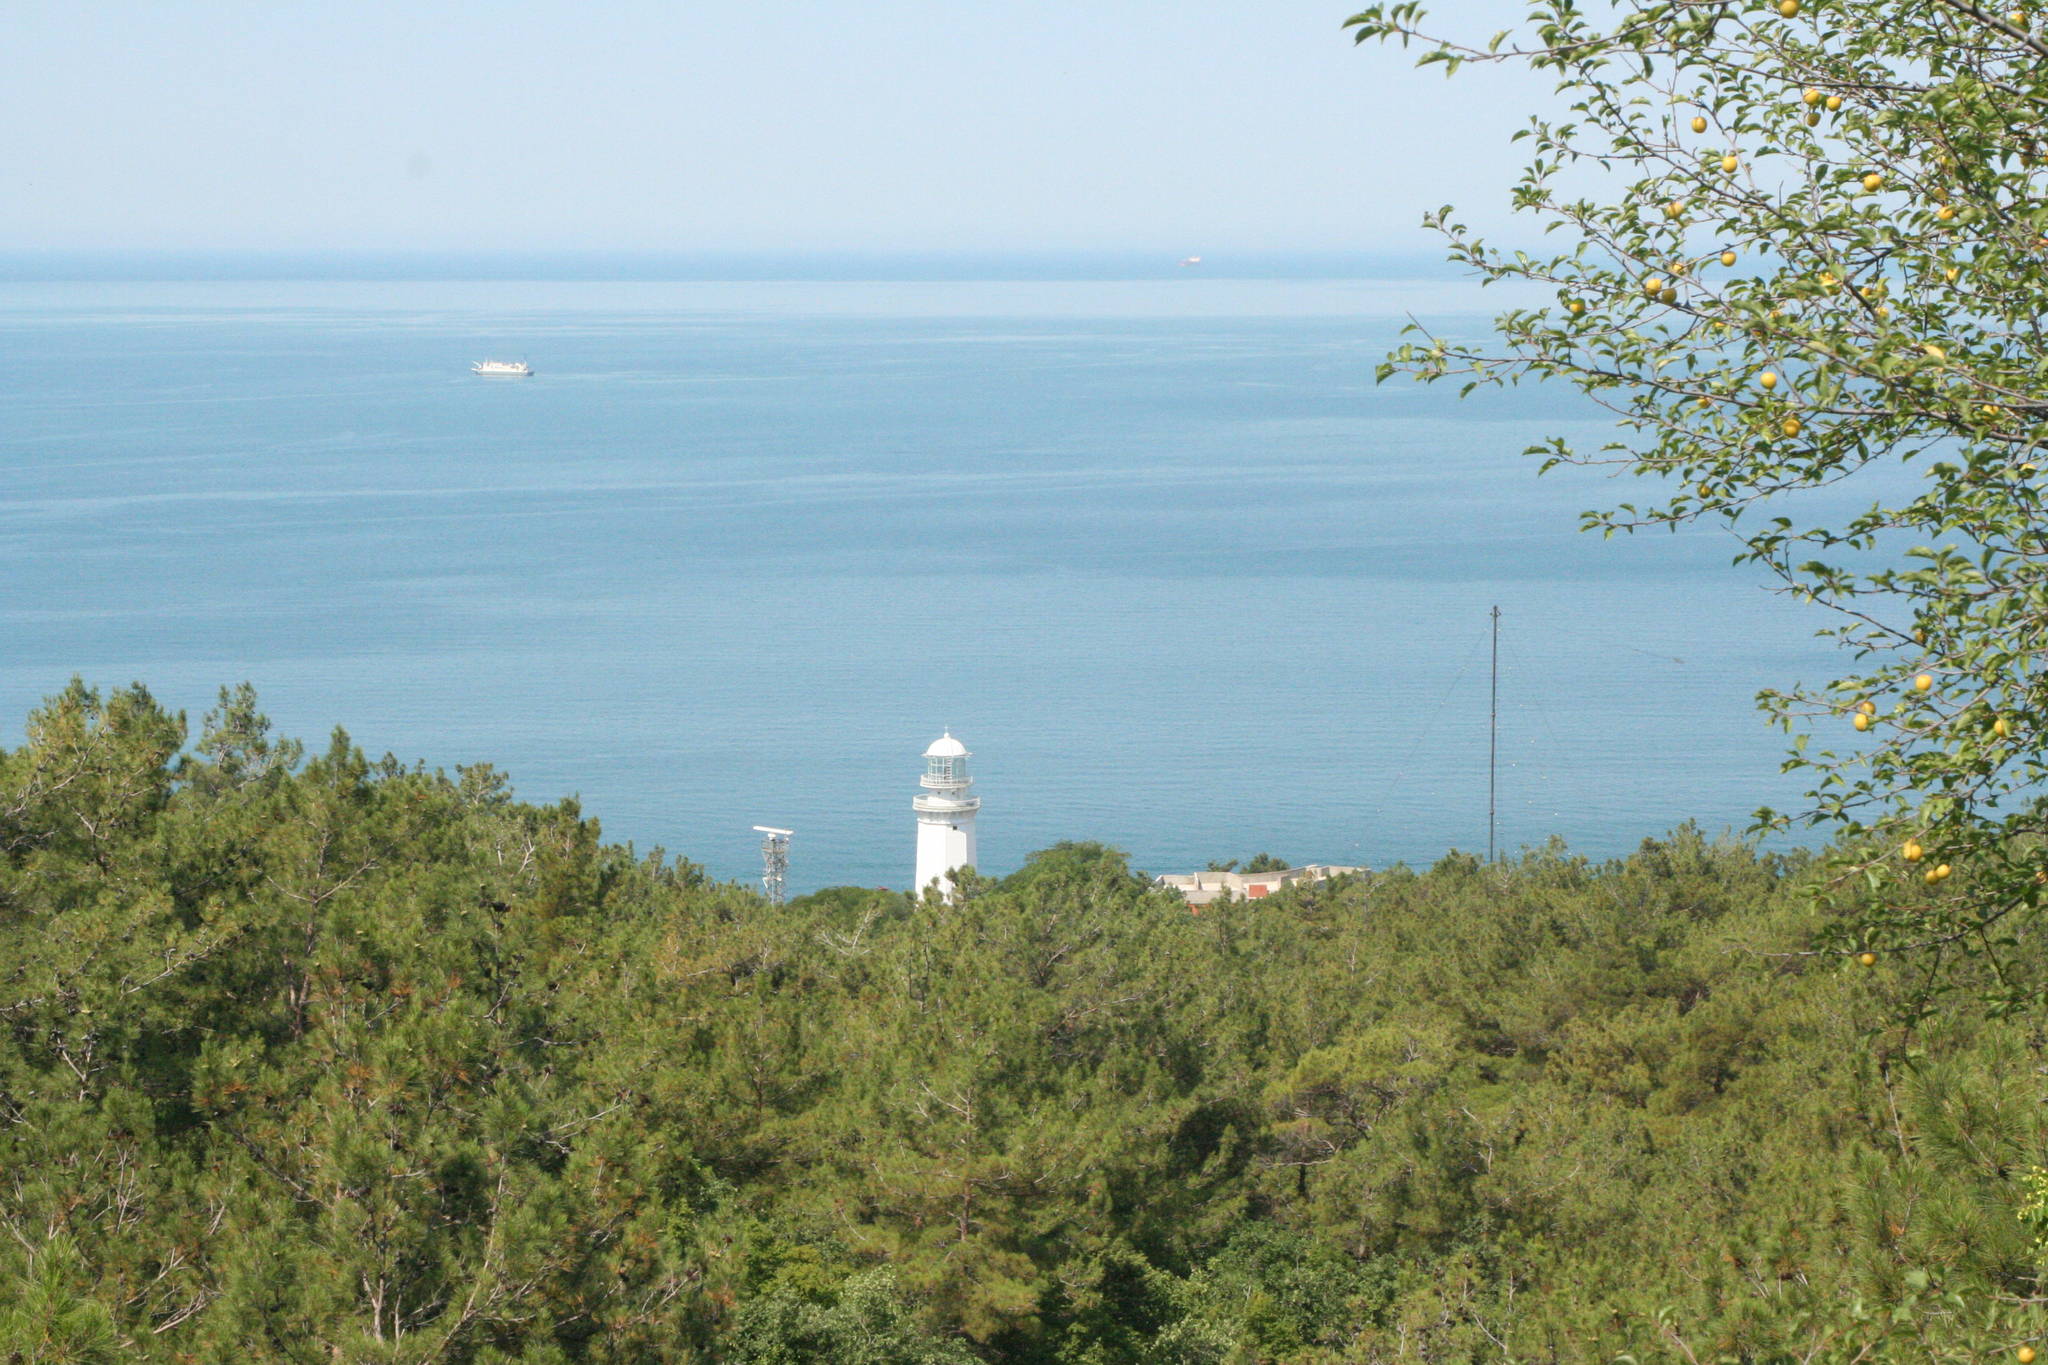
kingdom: Plantae
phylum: Tracheophyta
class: Pinopsida
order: Pinales
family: Pinaceae
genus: Pinus
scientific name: Pinus brutia
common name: Turkish pine
